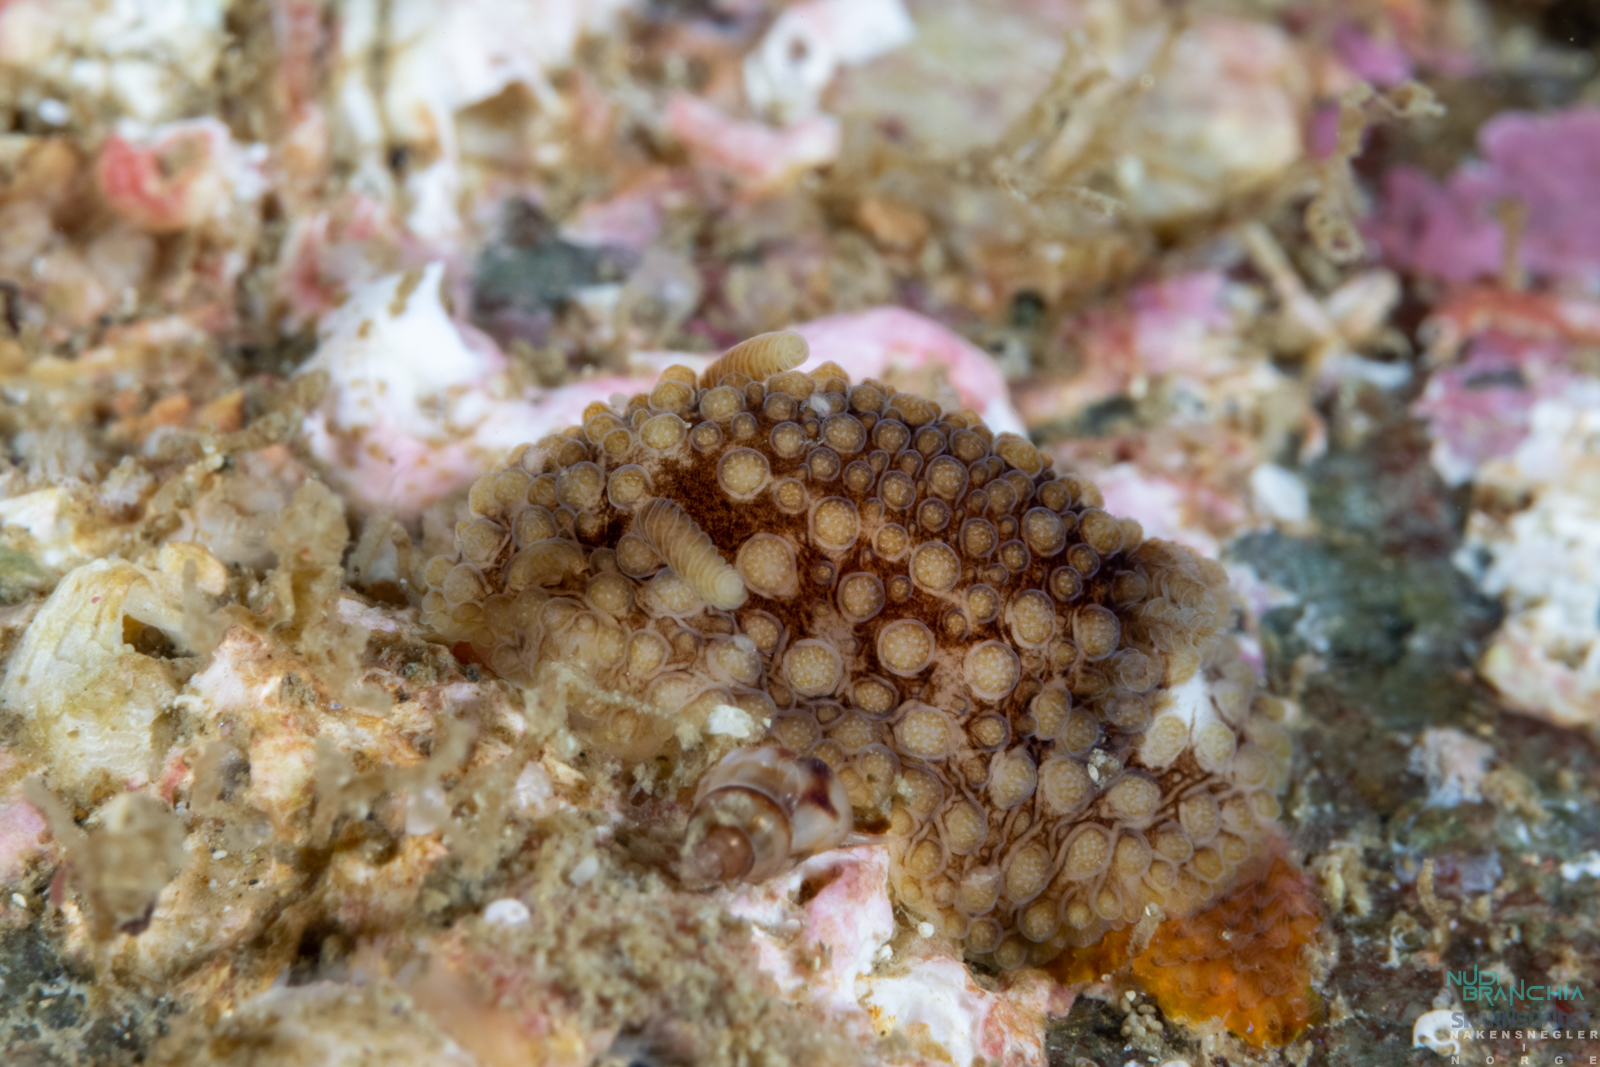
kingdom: Animalia
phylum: Mollusca
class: Gastropoda
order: Nudibranchia
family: Onchidorididae
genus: Onchidoris
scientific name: Onchidoris bilamellata
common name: Barnacle-eating onchidoris
